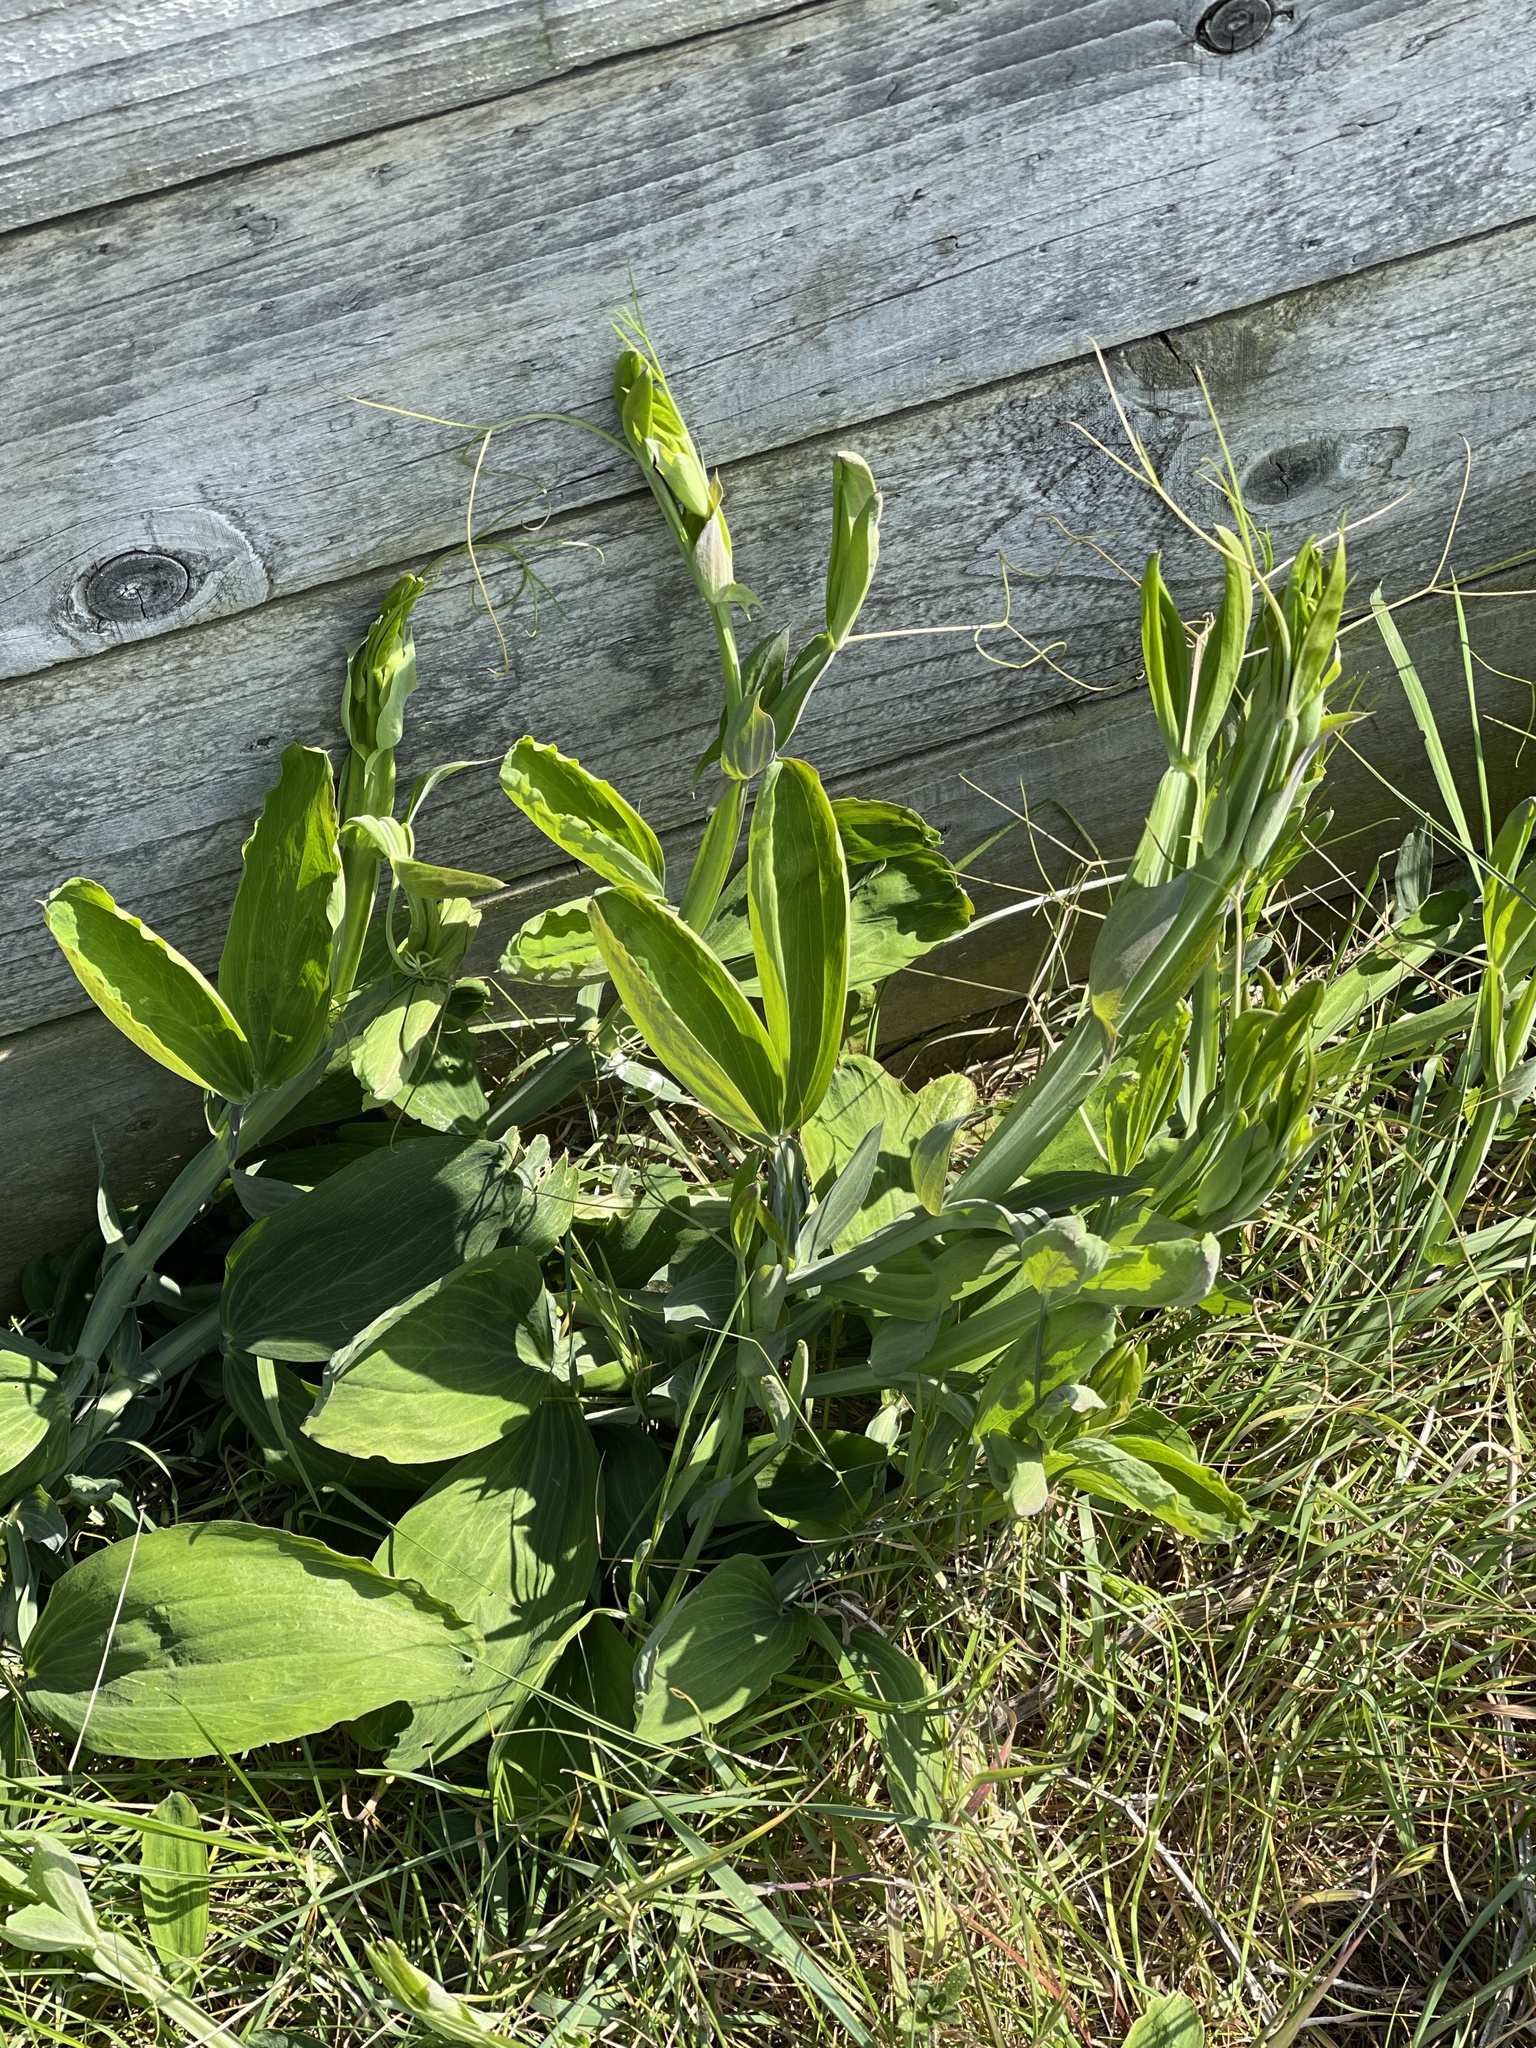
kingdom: Plantae
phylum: Tracheophyta
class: Magnoliopsida
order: Fabales
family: Fabaceae
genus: Lathyrus
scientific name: Lathyrus latifolius
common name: Perennial pea
